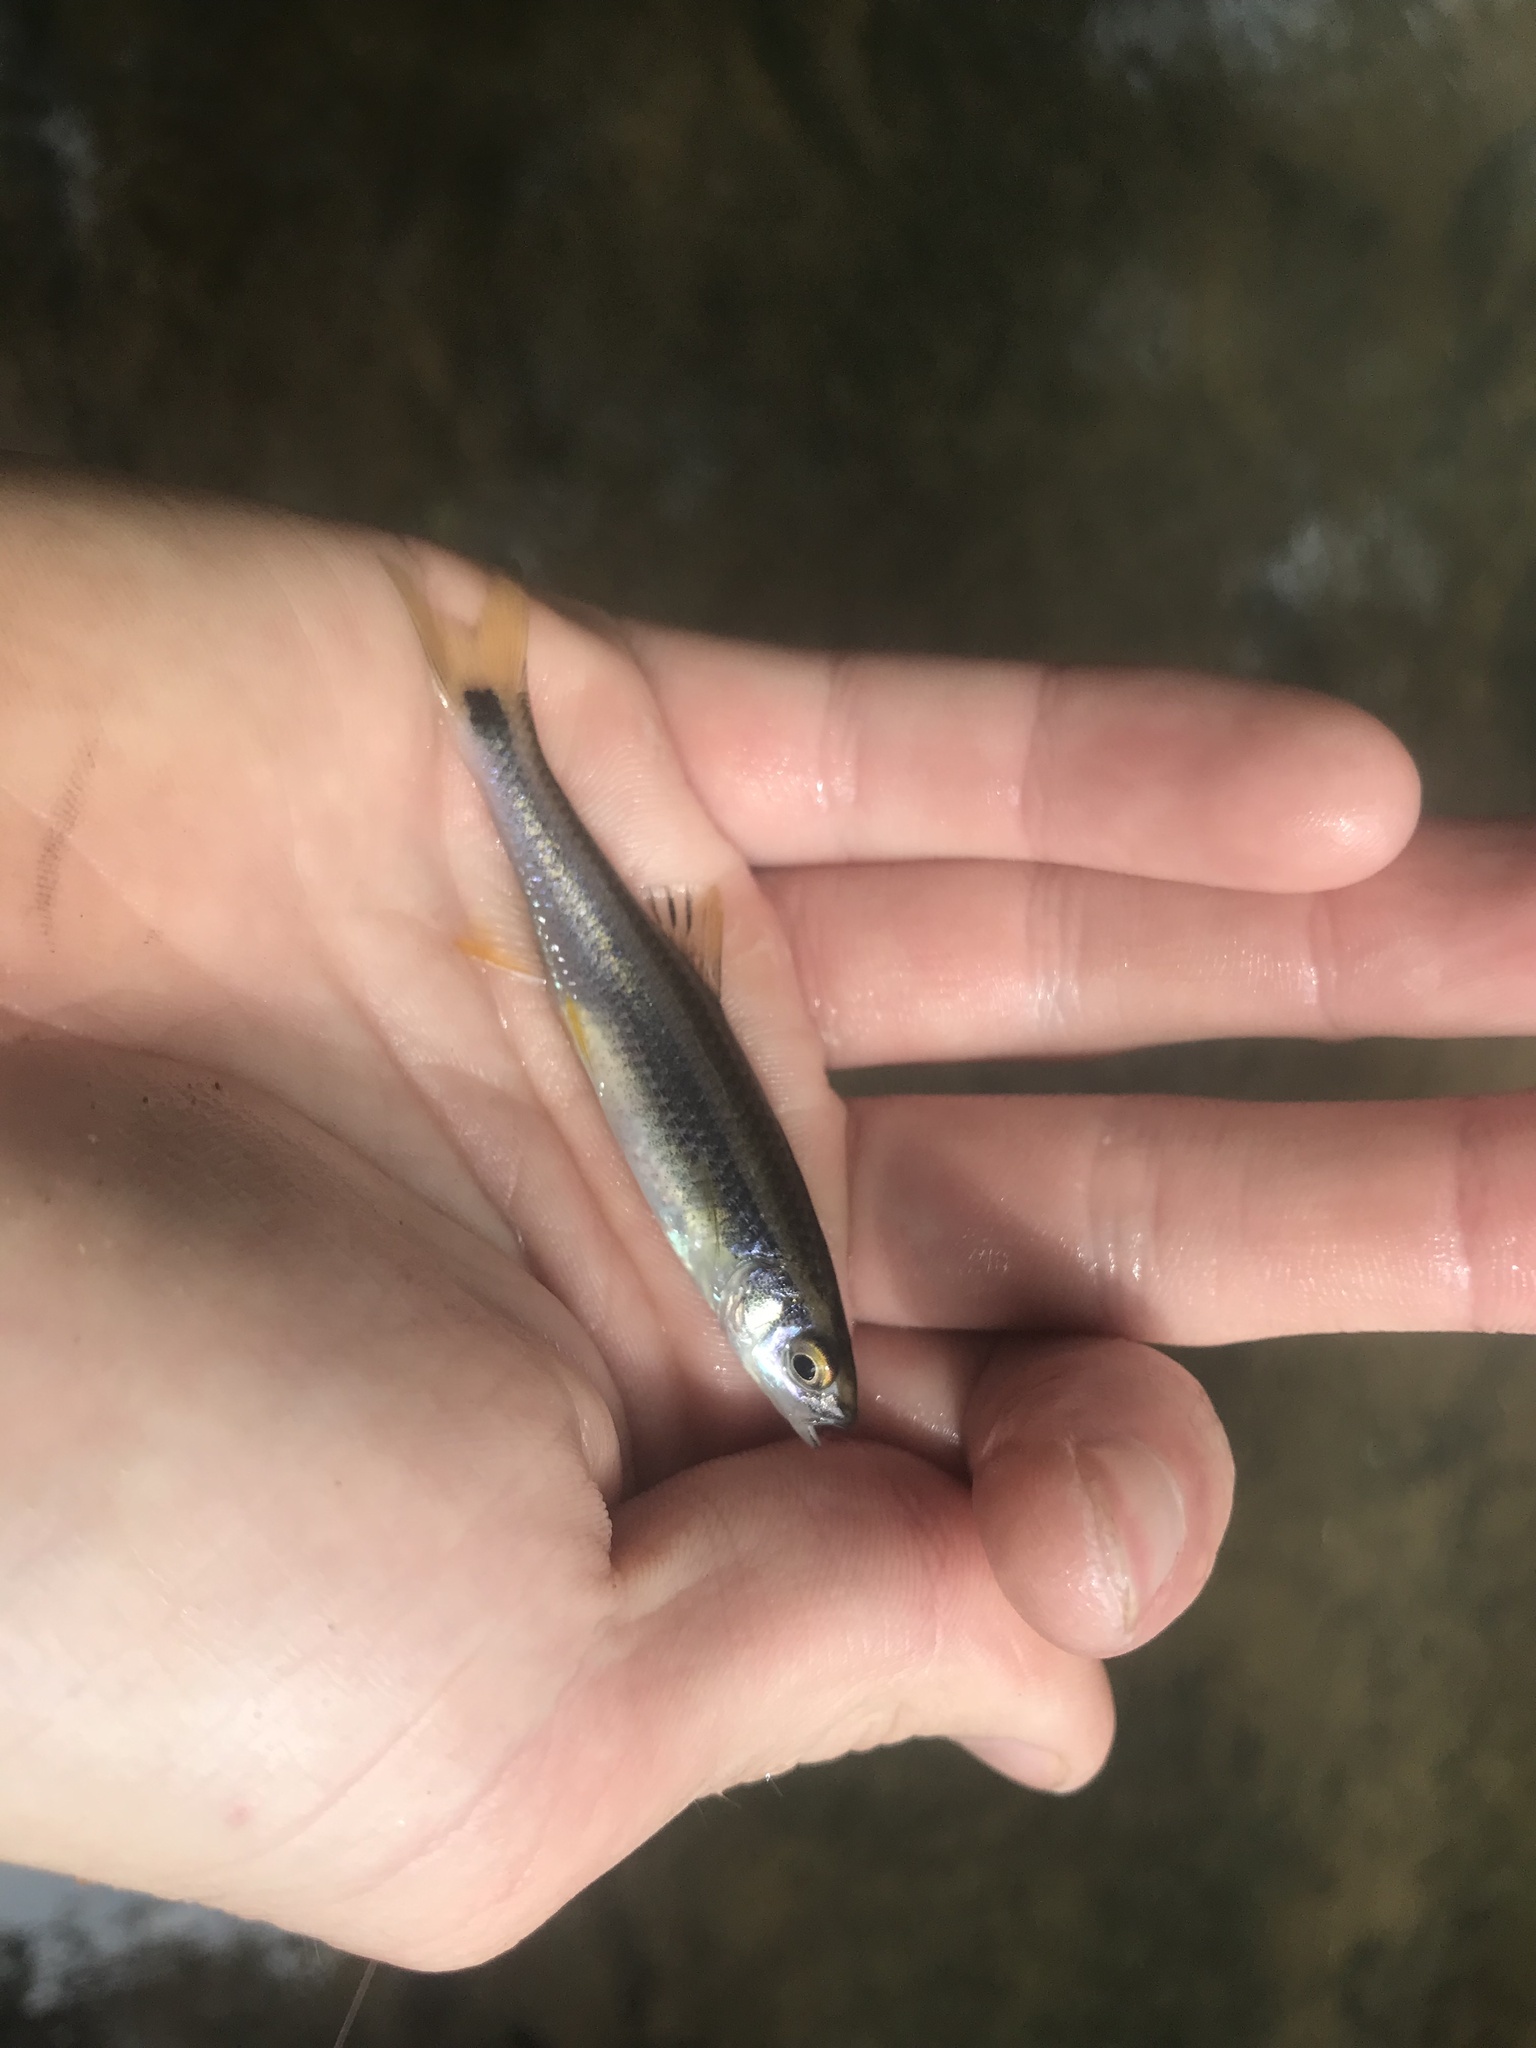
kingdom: Animalia
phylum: Chordata
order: Cypriniformes
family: Cyprinidae
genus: Cyprinella
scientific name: Cyprinella trichroistia
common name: Tricolor shiner
